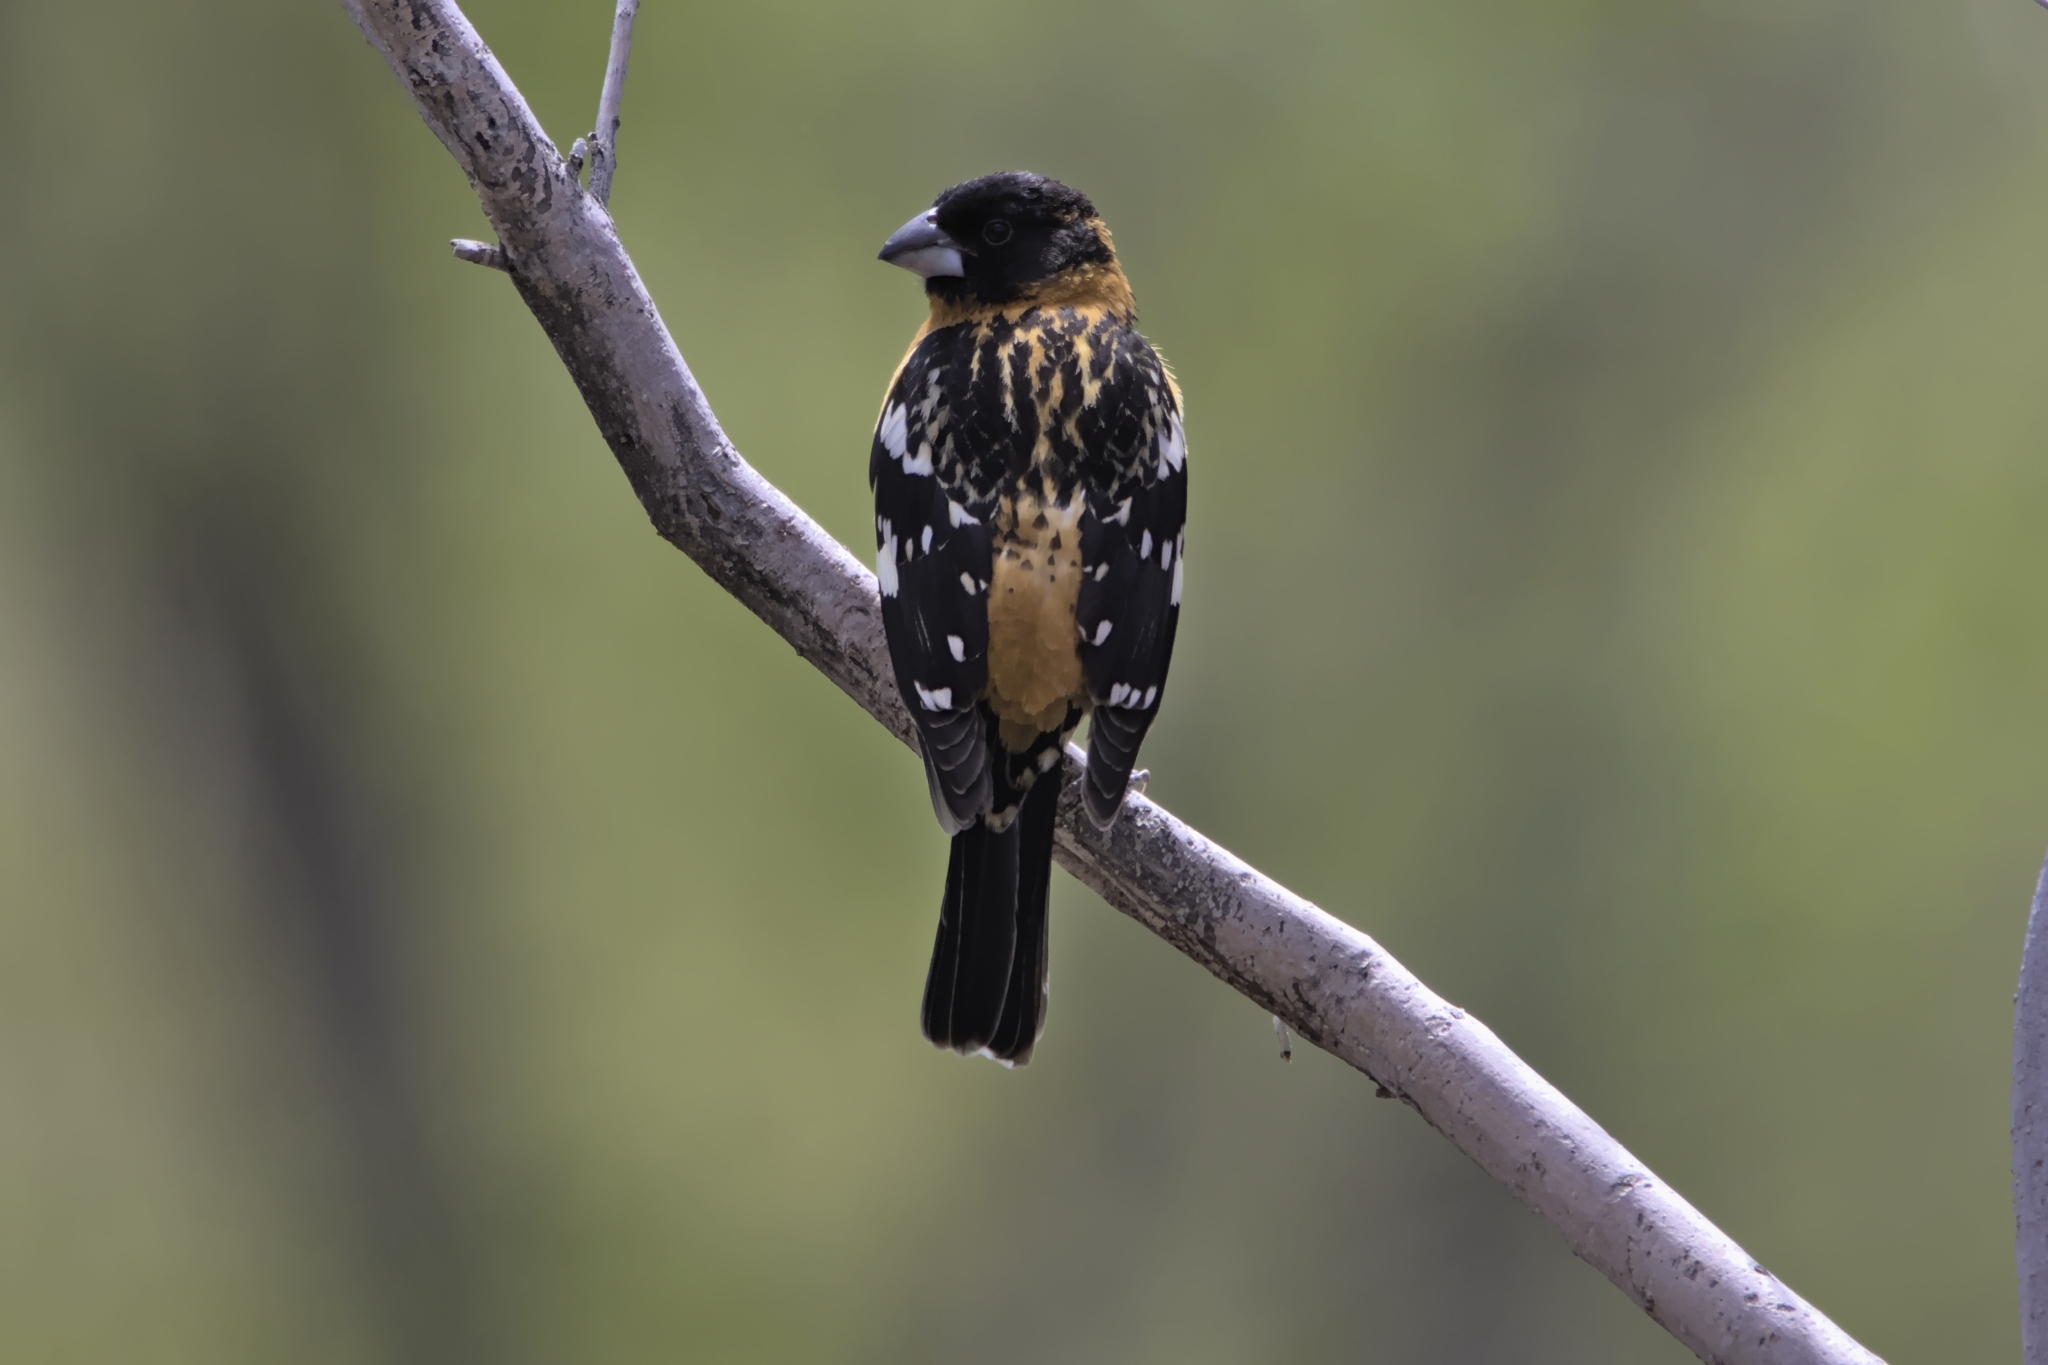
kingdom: Animalia
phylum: Chordata
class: Aves
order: Passeriformes
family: Cardinalidae
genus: Pheucticus
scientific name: Pheucticus melanocephalus
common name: Black-headed grosbeak
